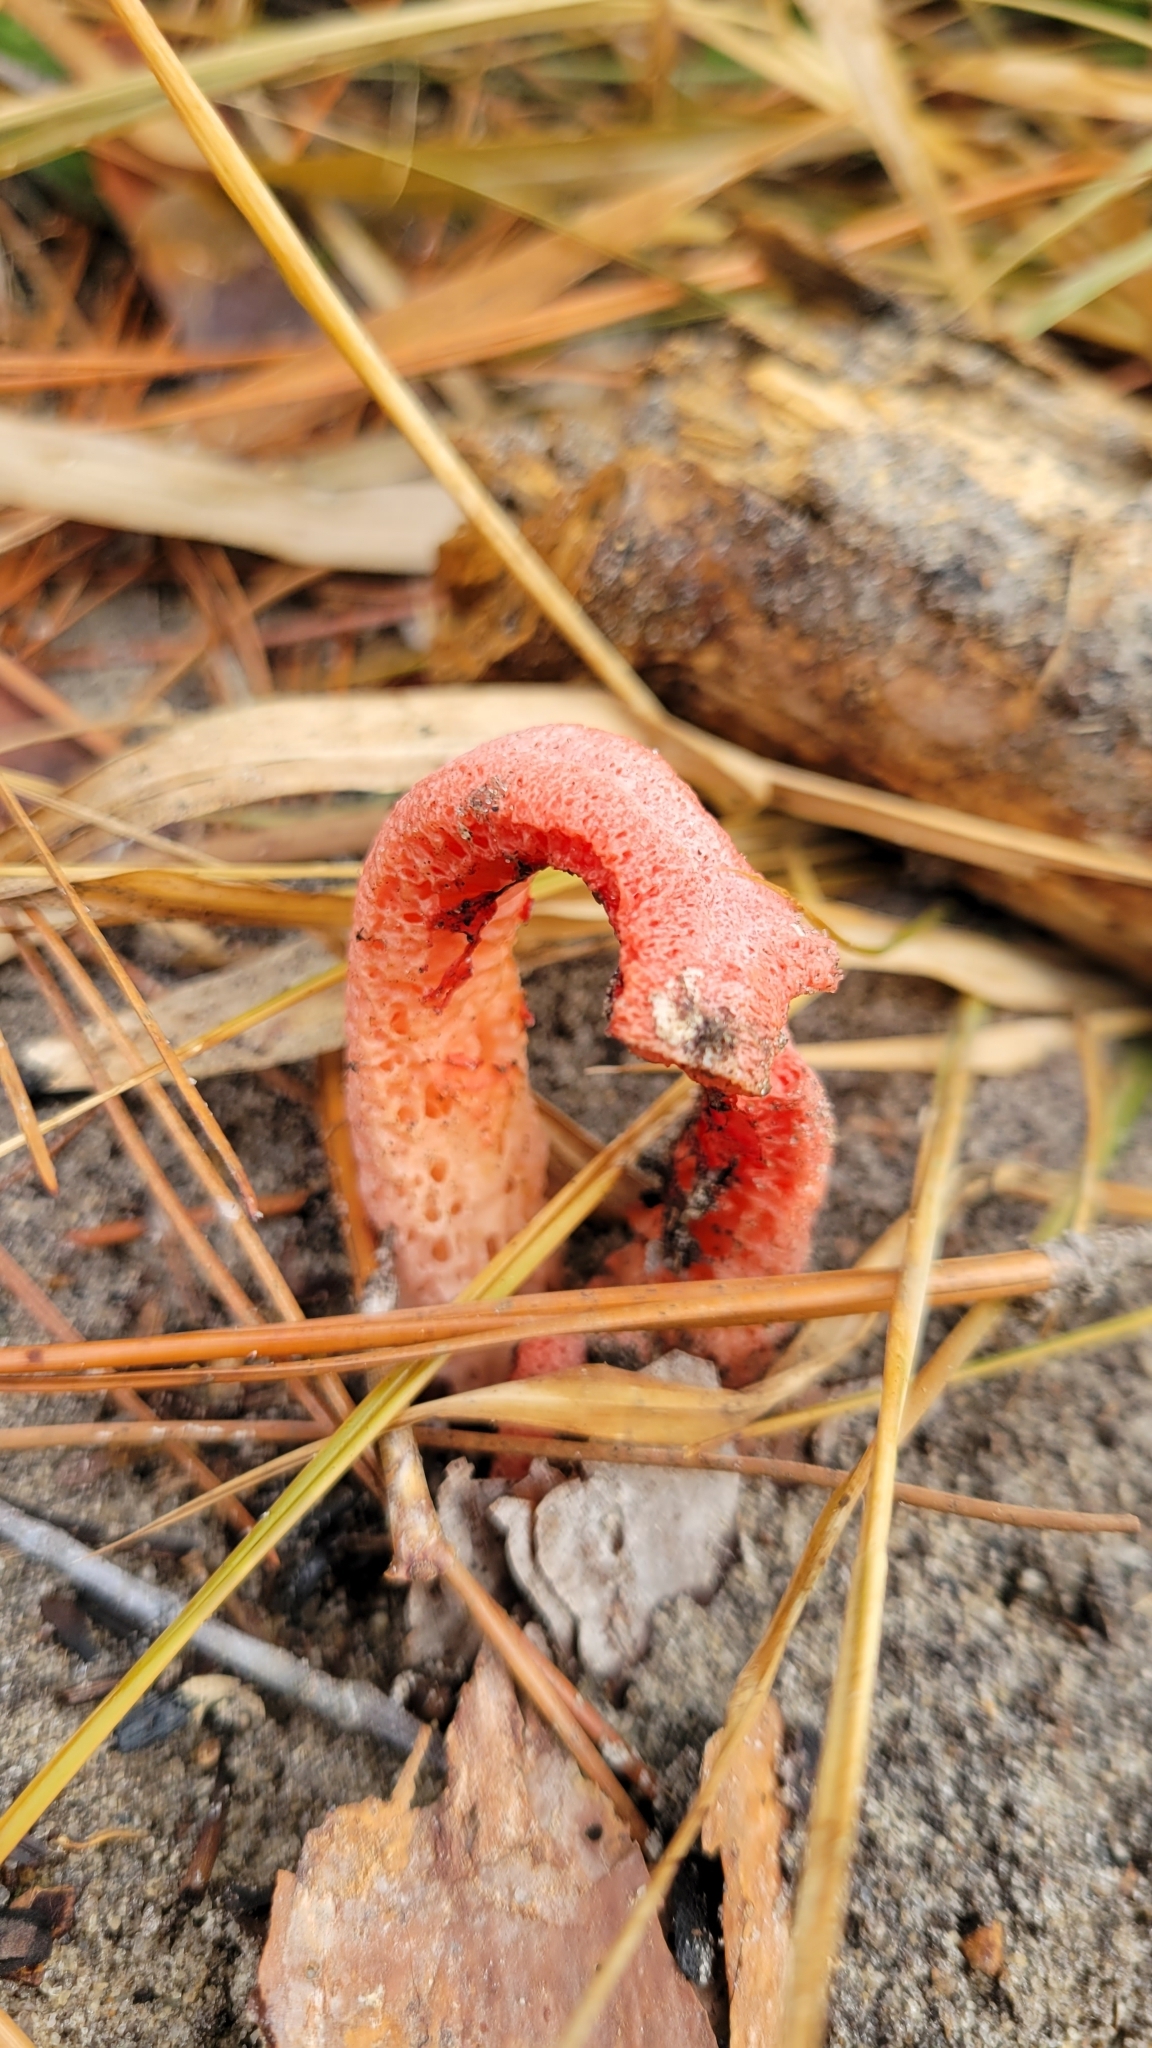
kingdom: Fungi
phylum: Basidiomycota
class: Agaricomycetes
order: Phallales
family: Phallaceae
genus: Clathrus
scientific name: Clathrus columnatus
